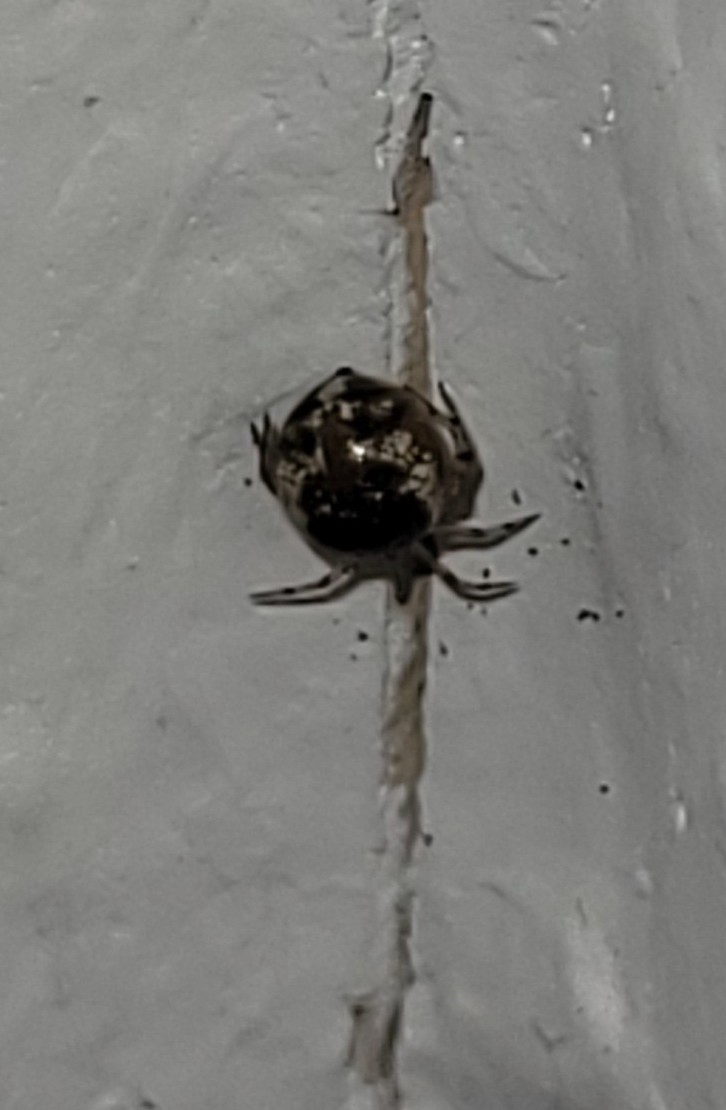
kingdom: Animalia
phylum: Arthropoda
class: Arachnida
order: Araneae
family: Theridiidae
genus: Sardinidion
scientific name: Sardinidion blackwalli
